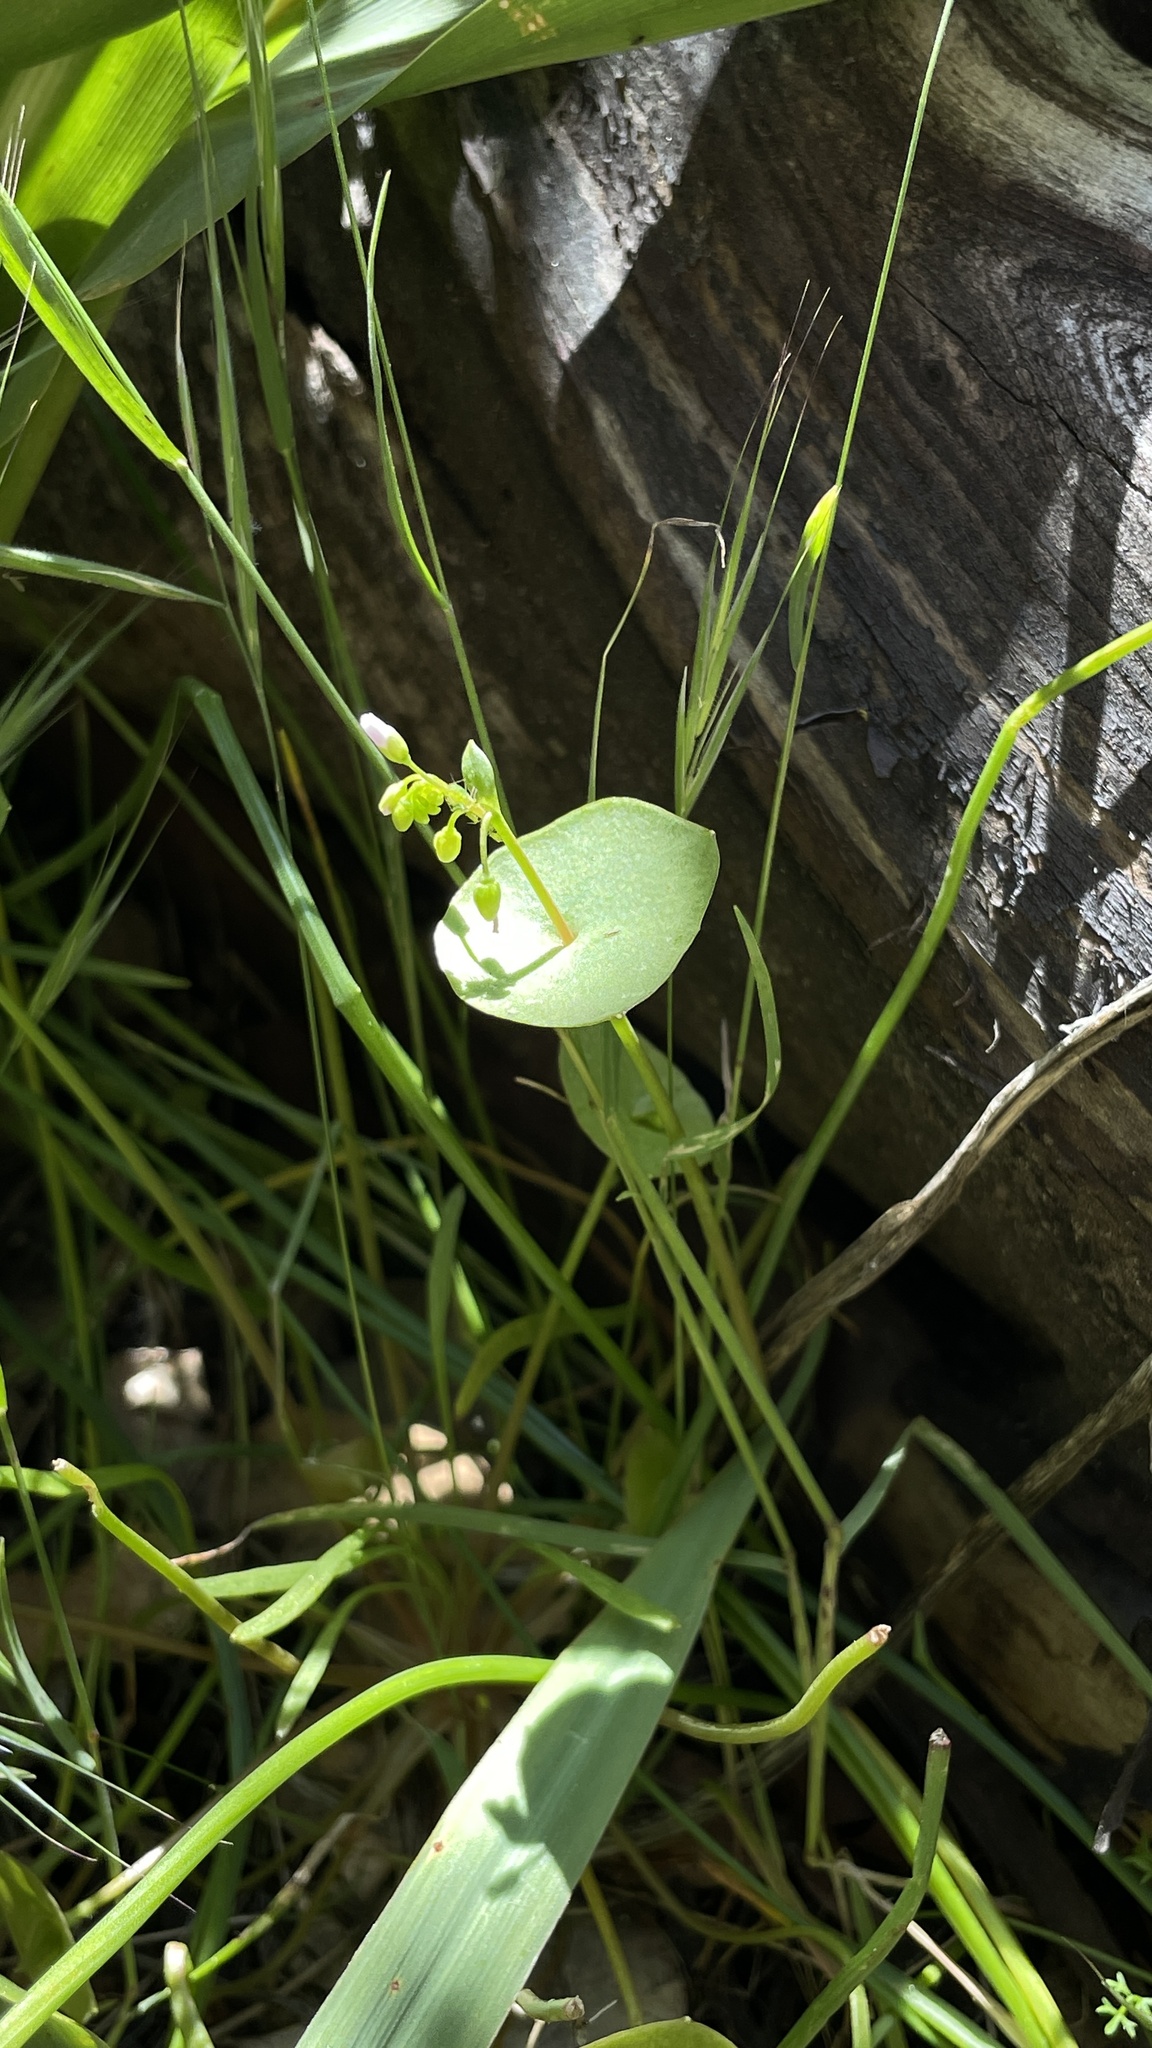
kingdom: Plantae
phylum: Tracheophyta
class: Magnoliopsida
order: Caryophyllales
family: Montiaceae
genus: Claytonia
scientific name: Claytonia parviflora
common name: Indian-lettuce
